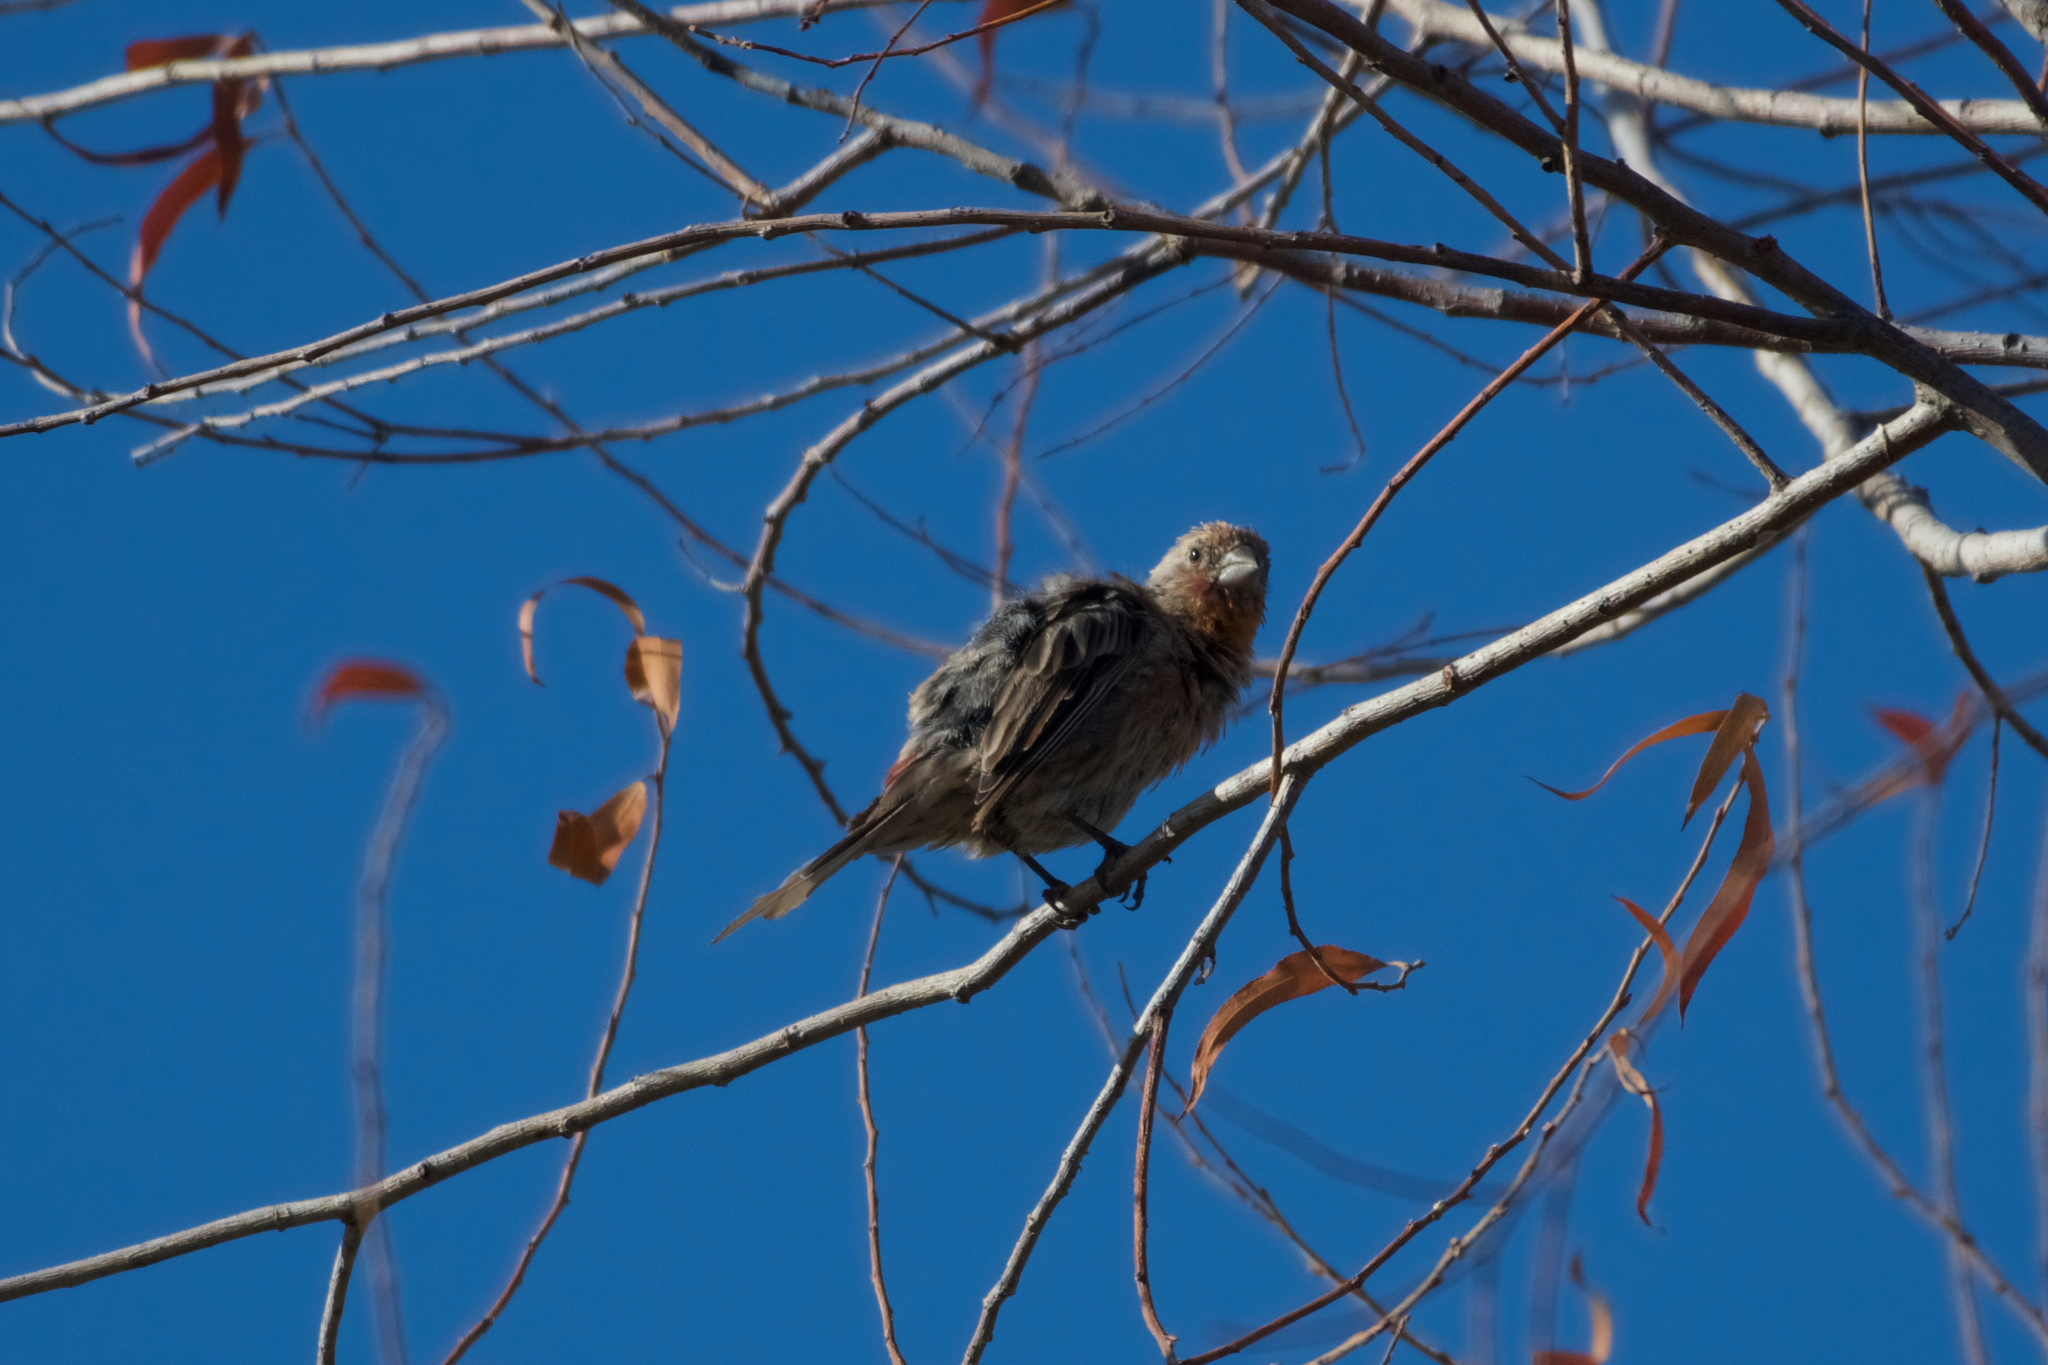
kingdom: Animalia
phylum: Chordata
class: Aves
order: Passeriformes
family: Fringillidae
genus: Haemorhous
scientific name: Haemorhous mexicanus
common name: House finch
